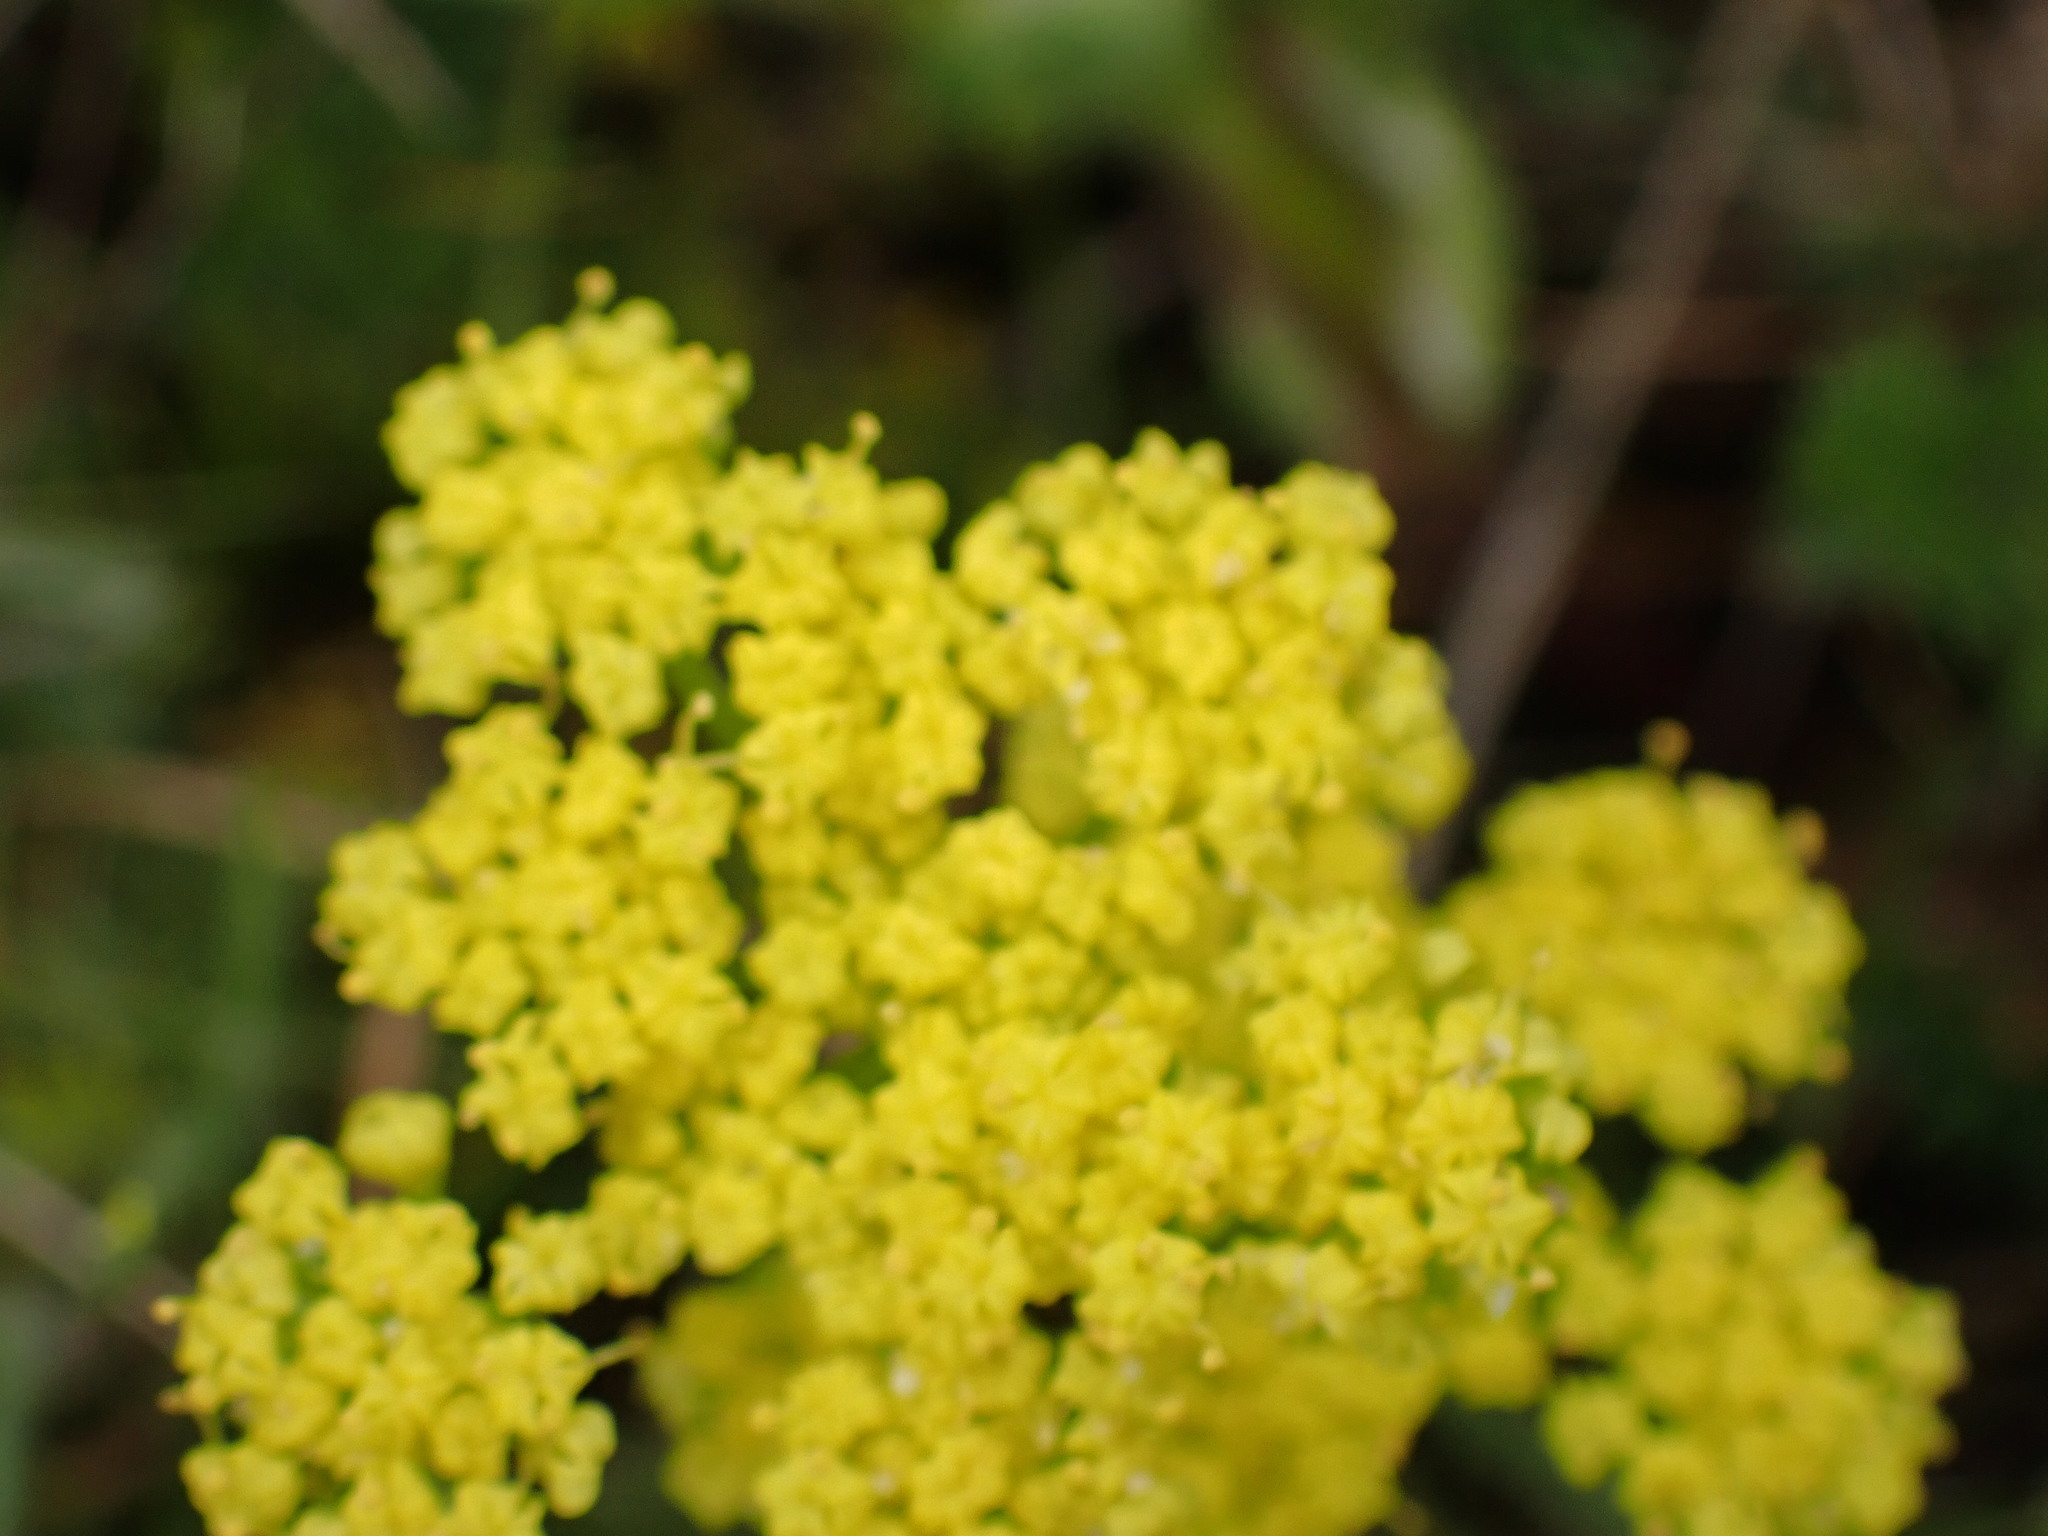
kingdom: Plantae
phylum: Tracheophyta
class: Magnoliopsida
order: Apiales
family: Apiaceae
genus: Lomatium
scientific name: Lomatium utriculatum
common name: Fine-leaf desert-parsley
